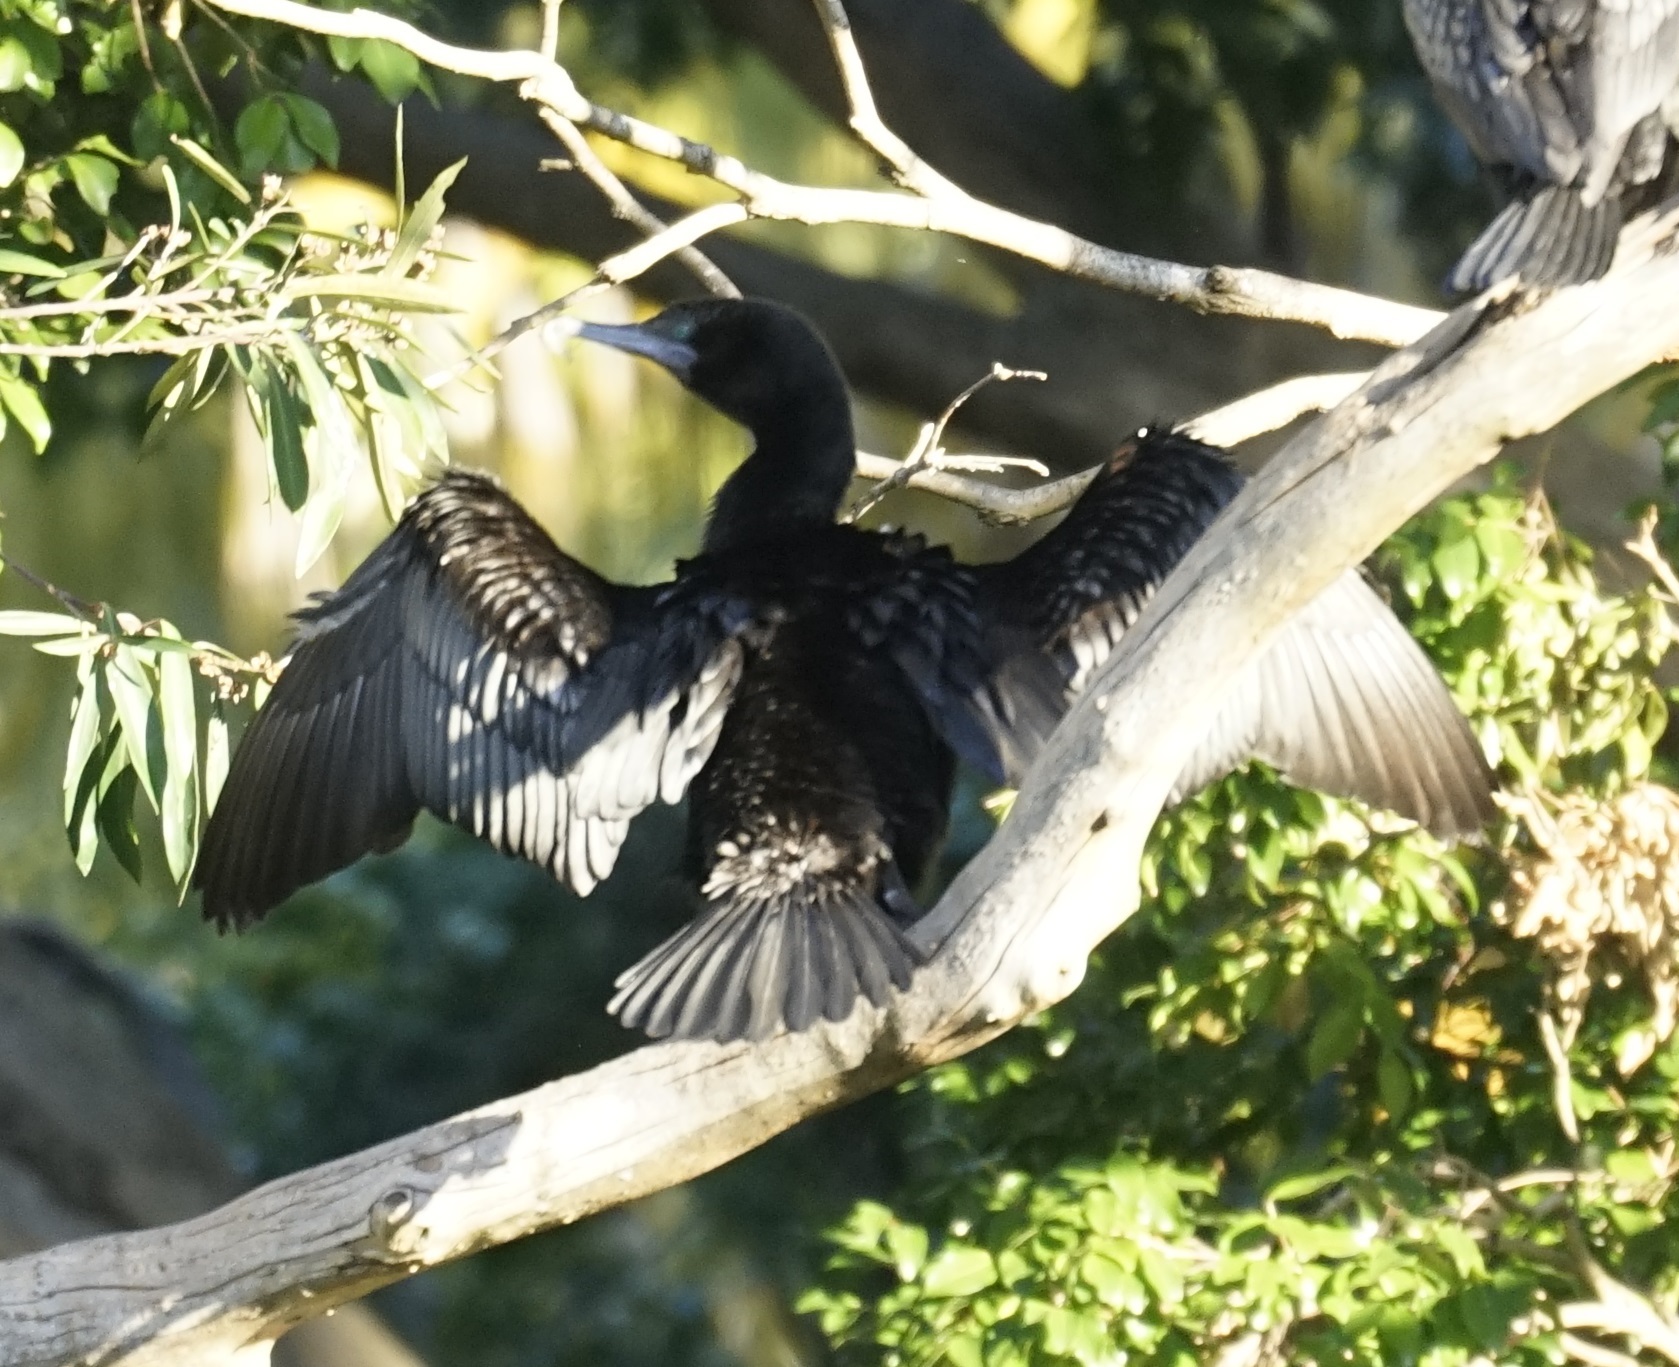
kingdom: Animalia
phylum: Chordata
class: Aves
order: Suliformes
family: Phalacrocoracidae
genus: Phalacrocorax
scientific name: Phalacrocorax sulcirostris
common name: Little black cormorant
